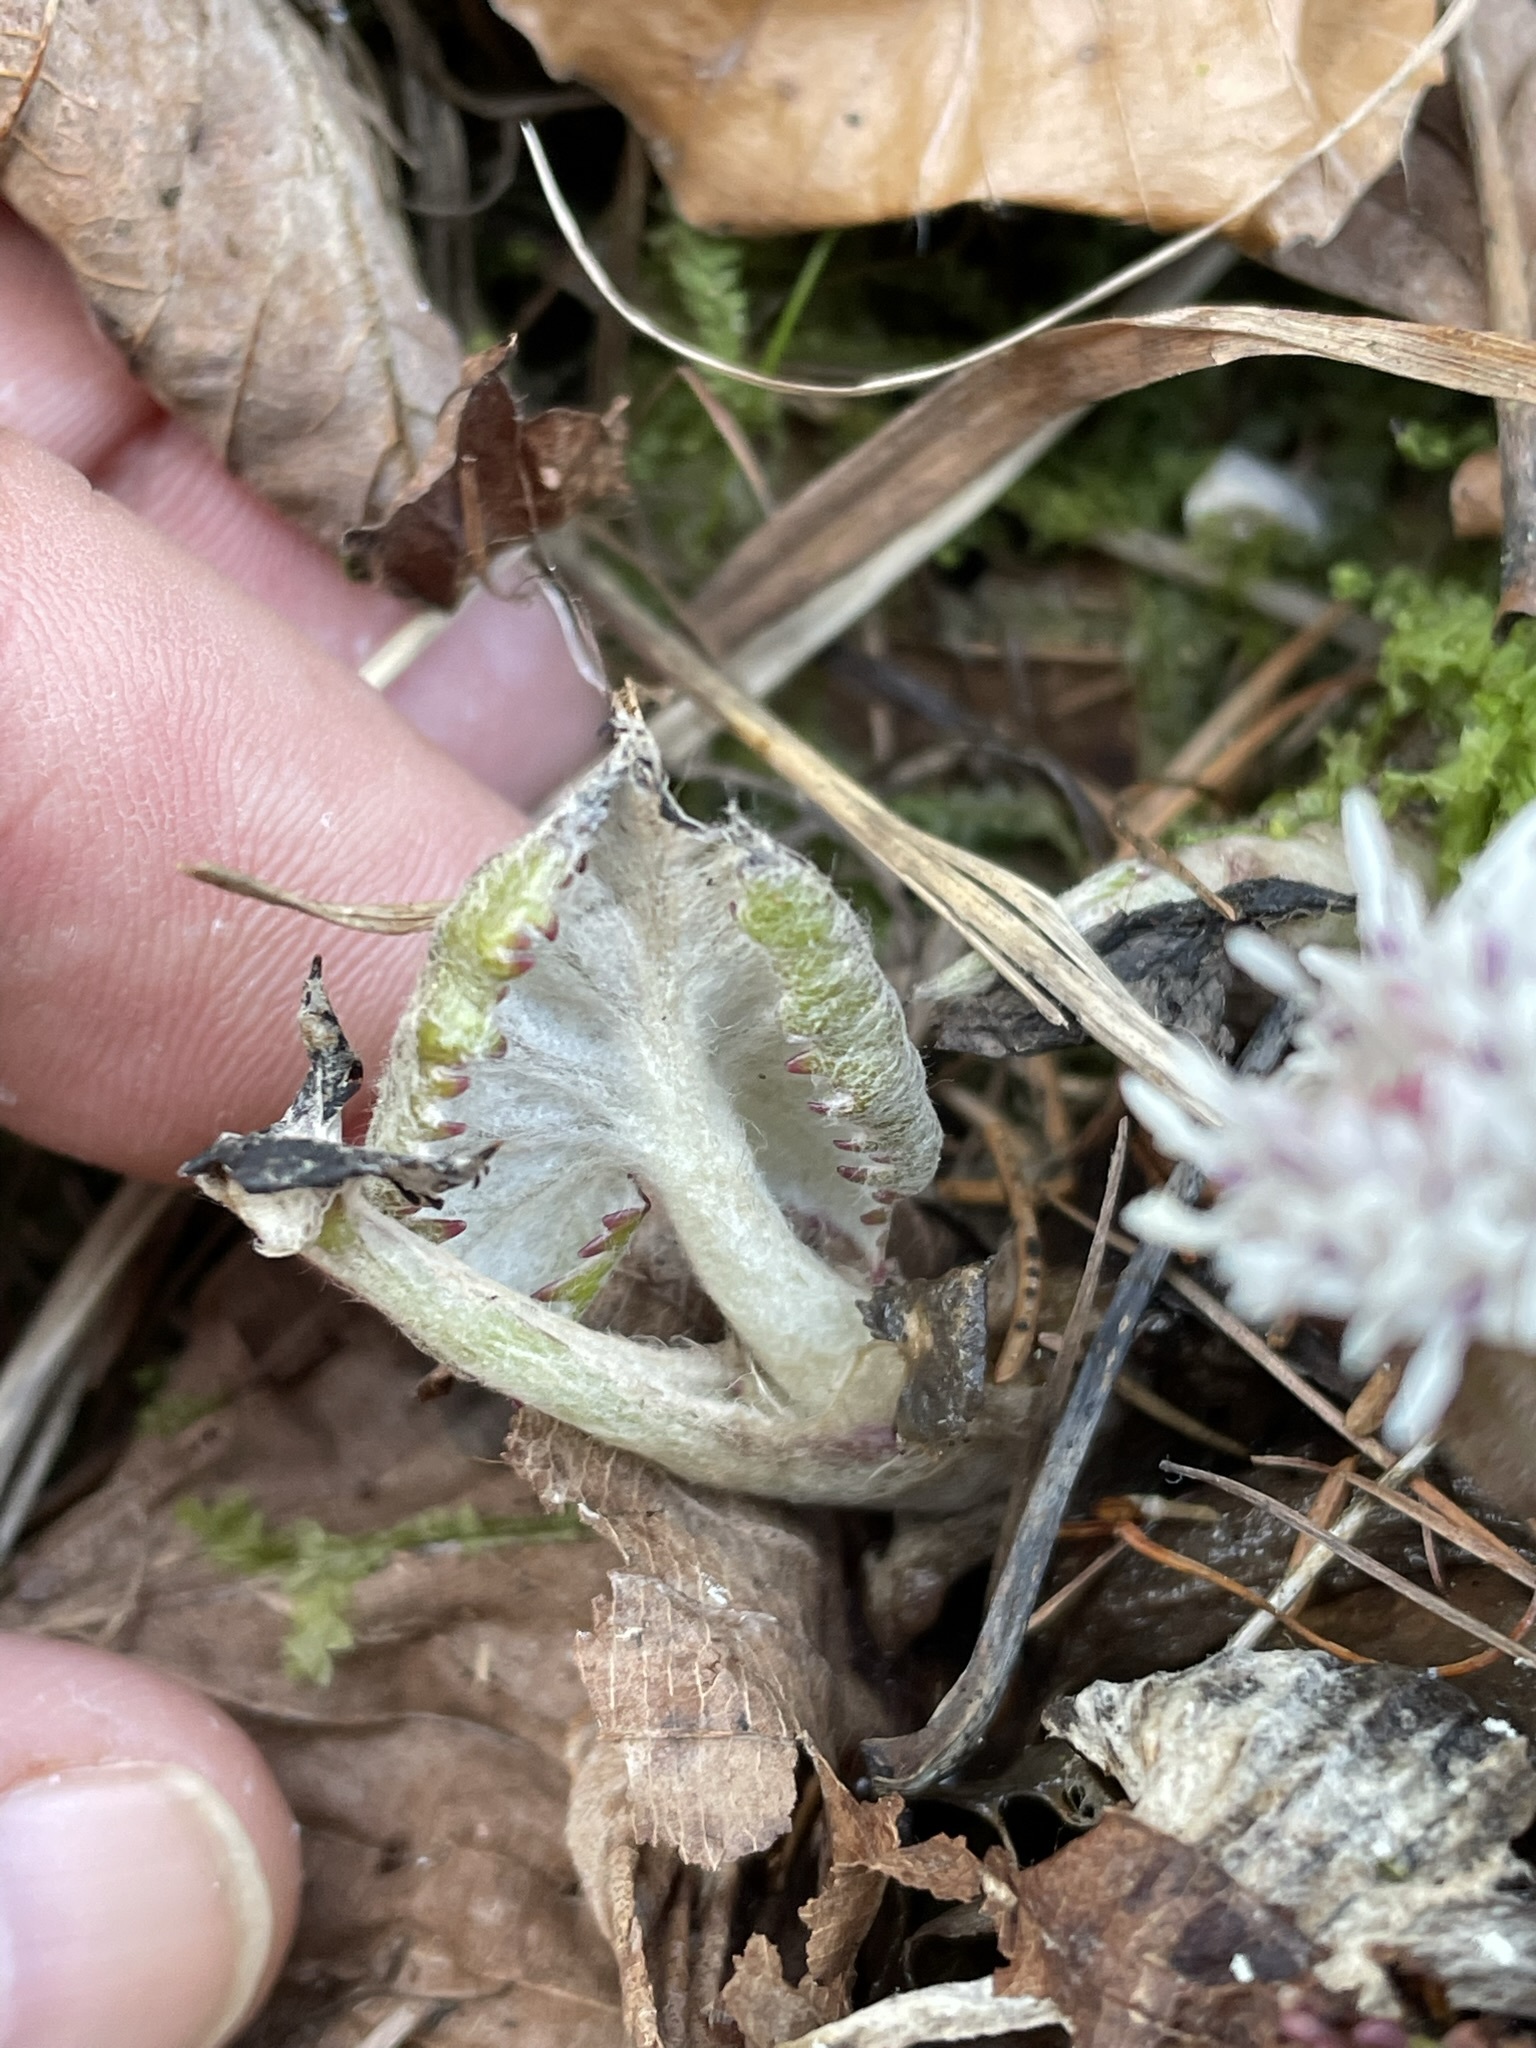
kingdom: Plantae
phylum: Tracheophyta
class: Magnoliopsida
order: Asterales
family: Asteraceae
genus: Petasites
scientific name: Petasites paradoxus
